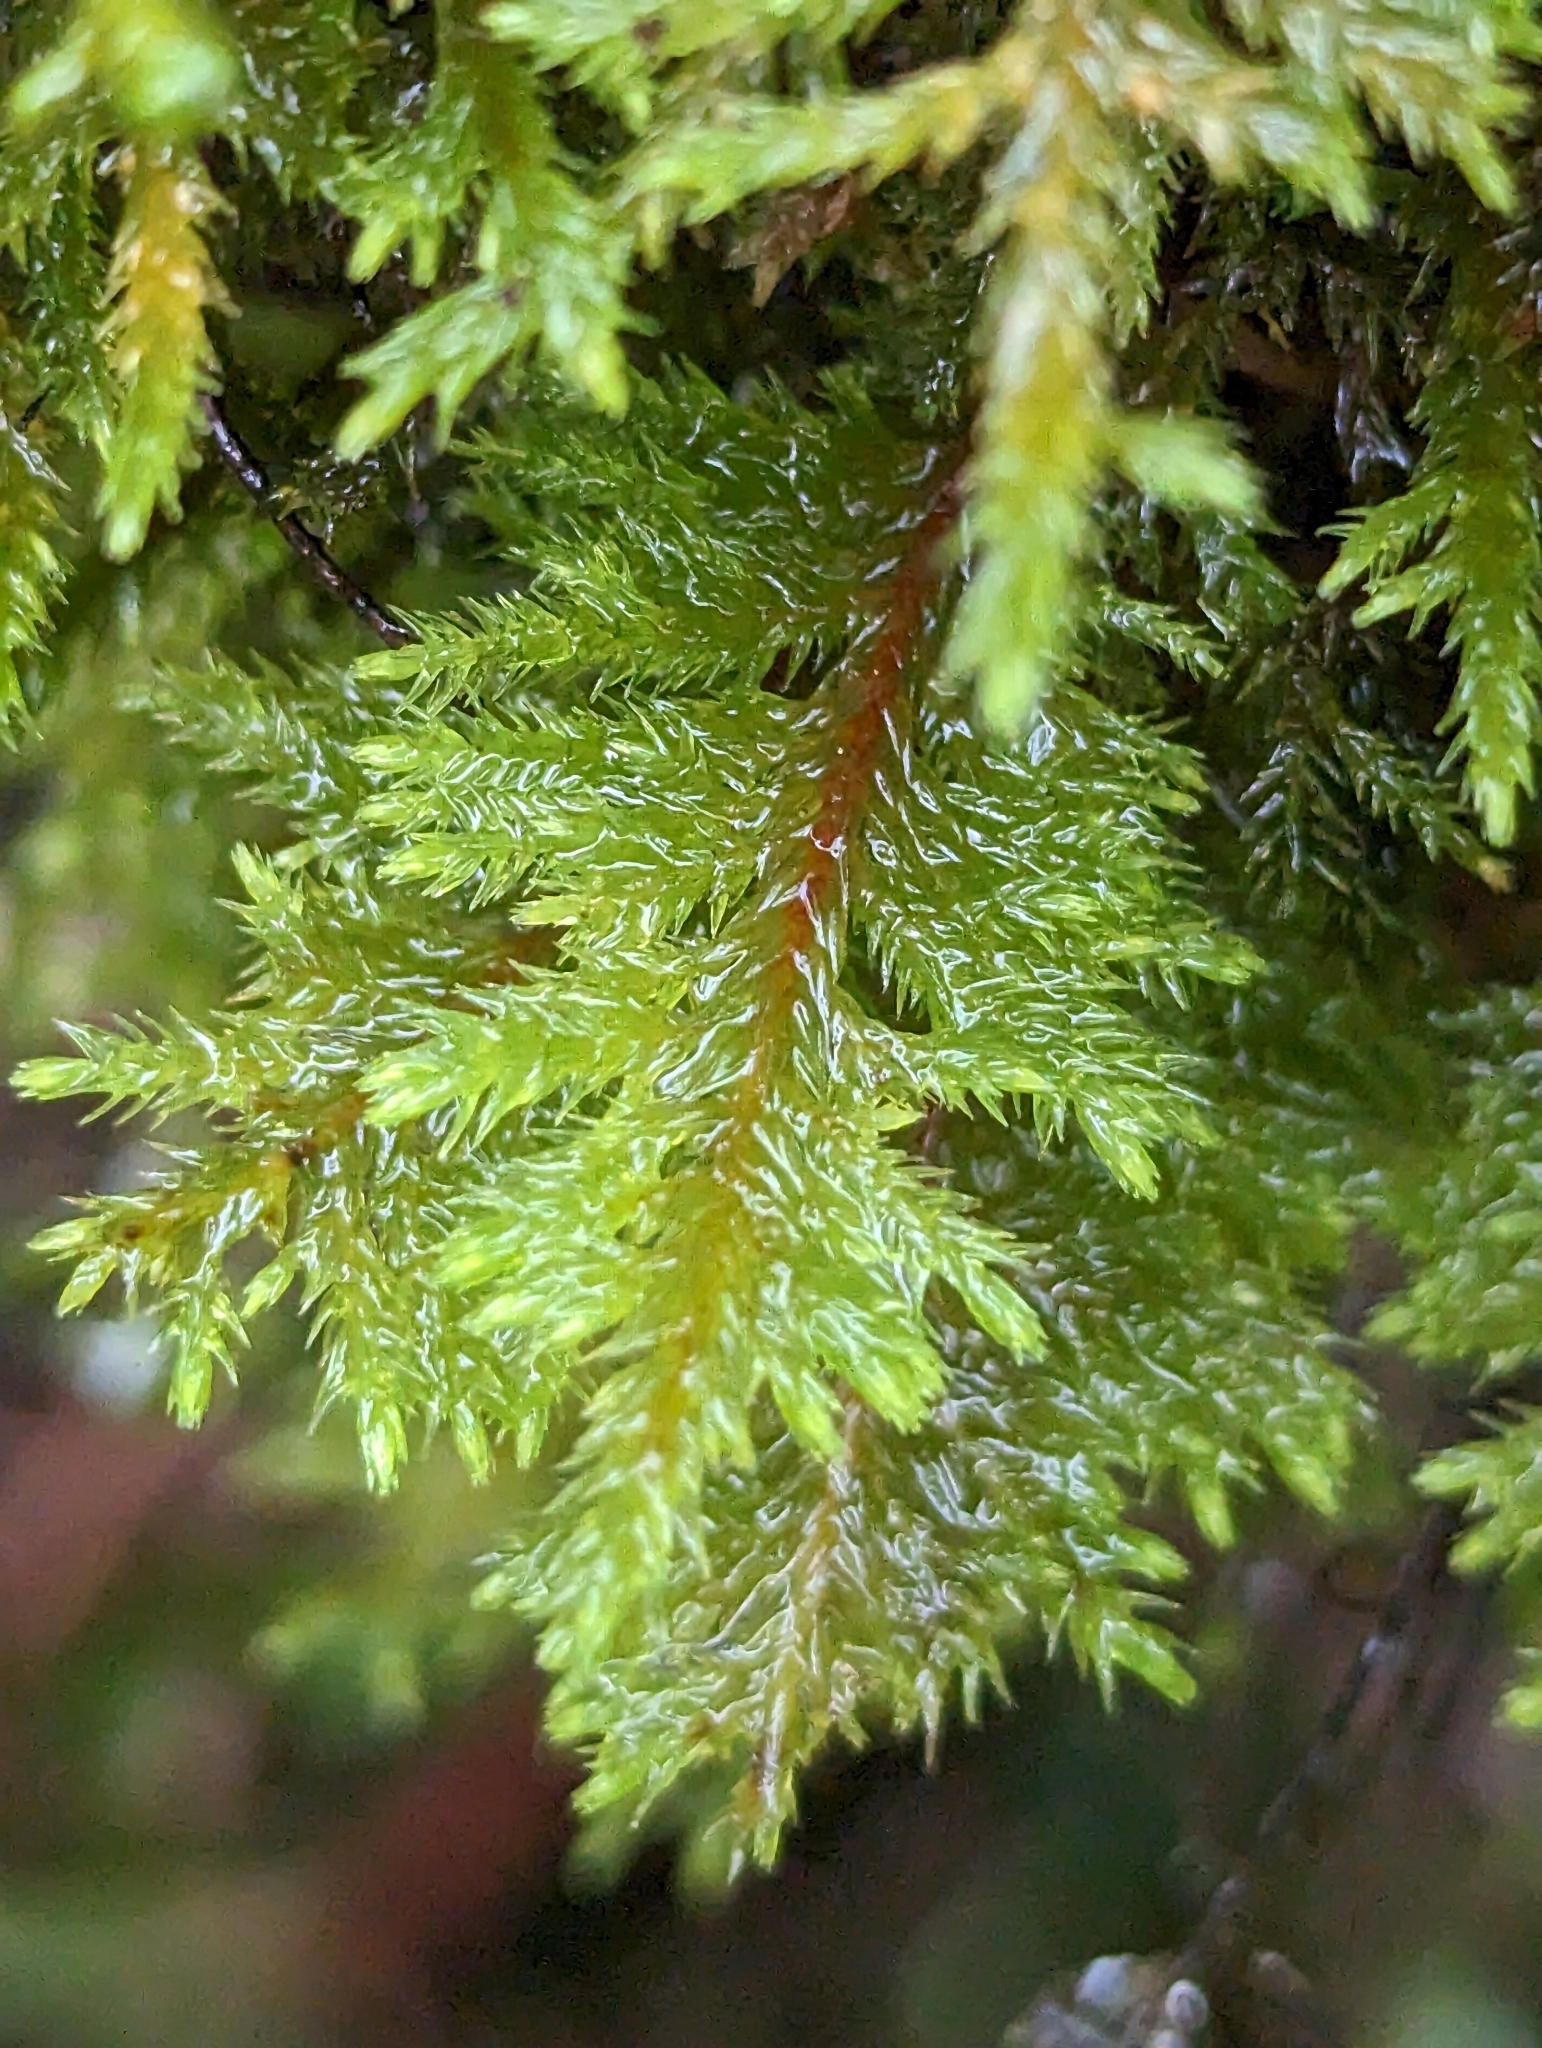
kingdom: Plantae
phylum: Bryophyta
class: Bryopsida
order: Hypnales
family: Cryphaeaceae
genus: Dendroalsia
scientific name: Dendroalsia abietina
